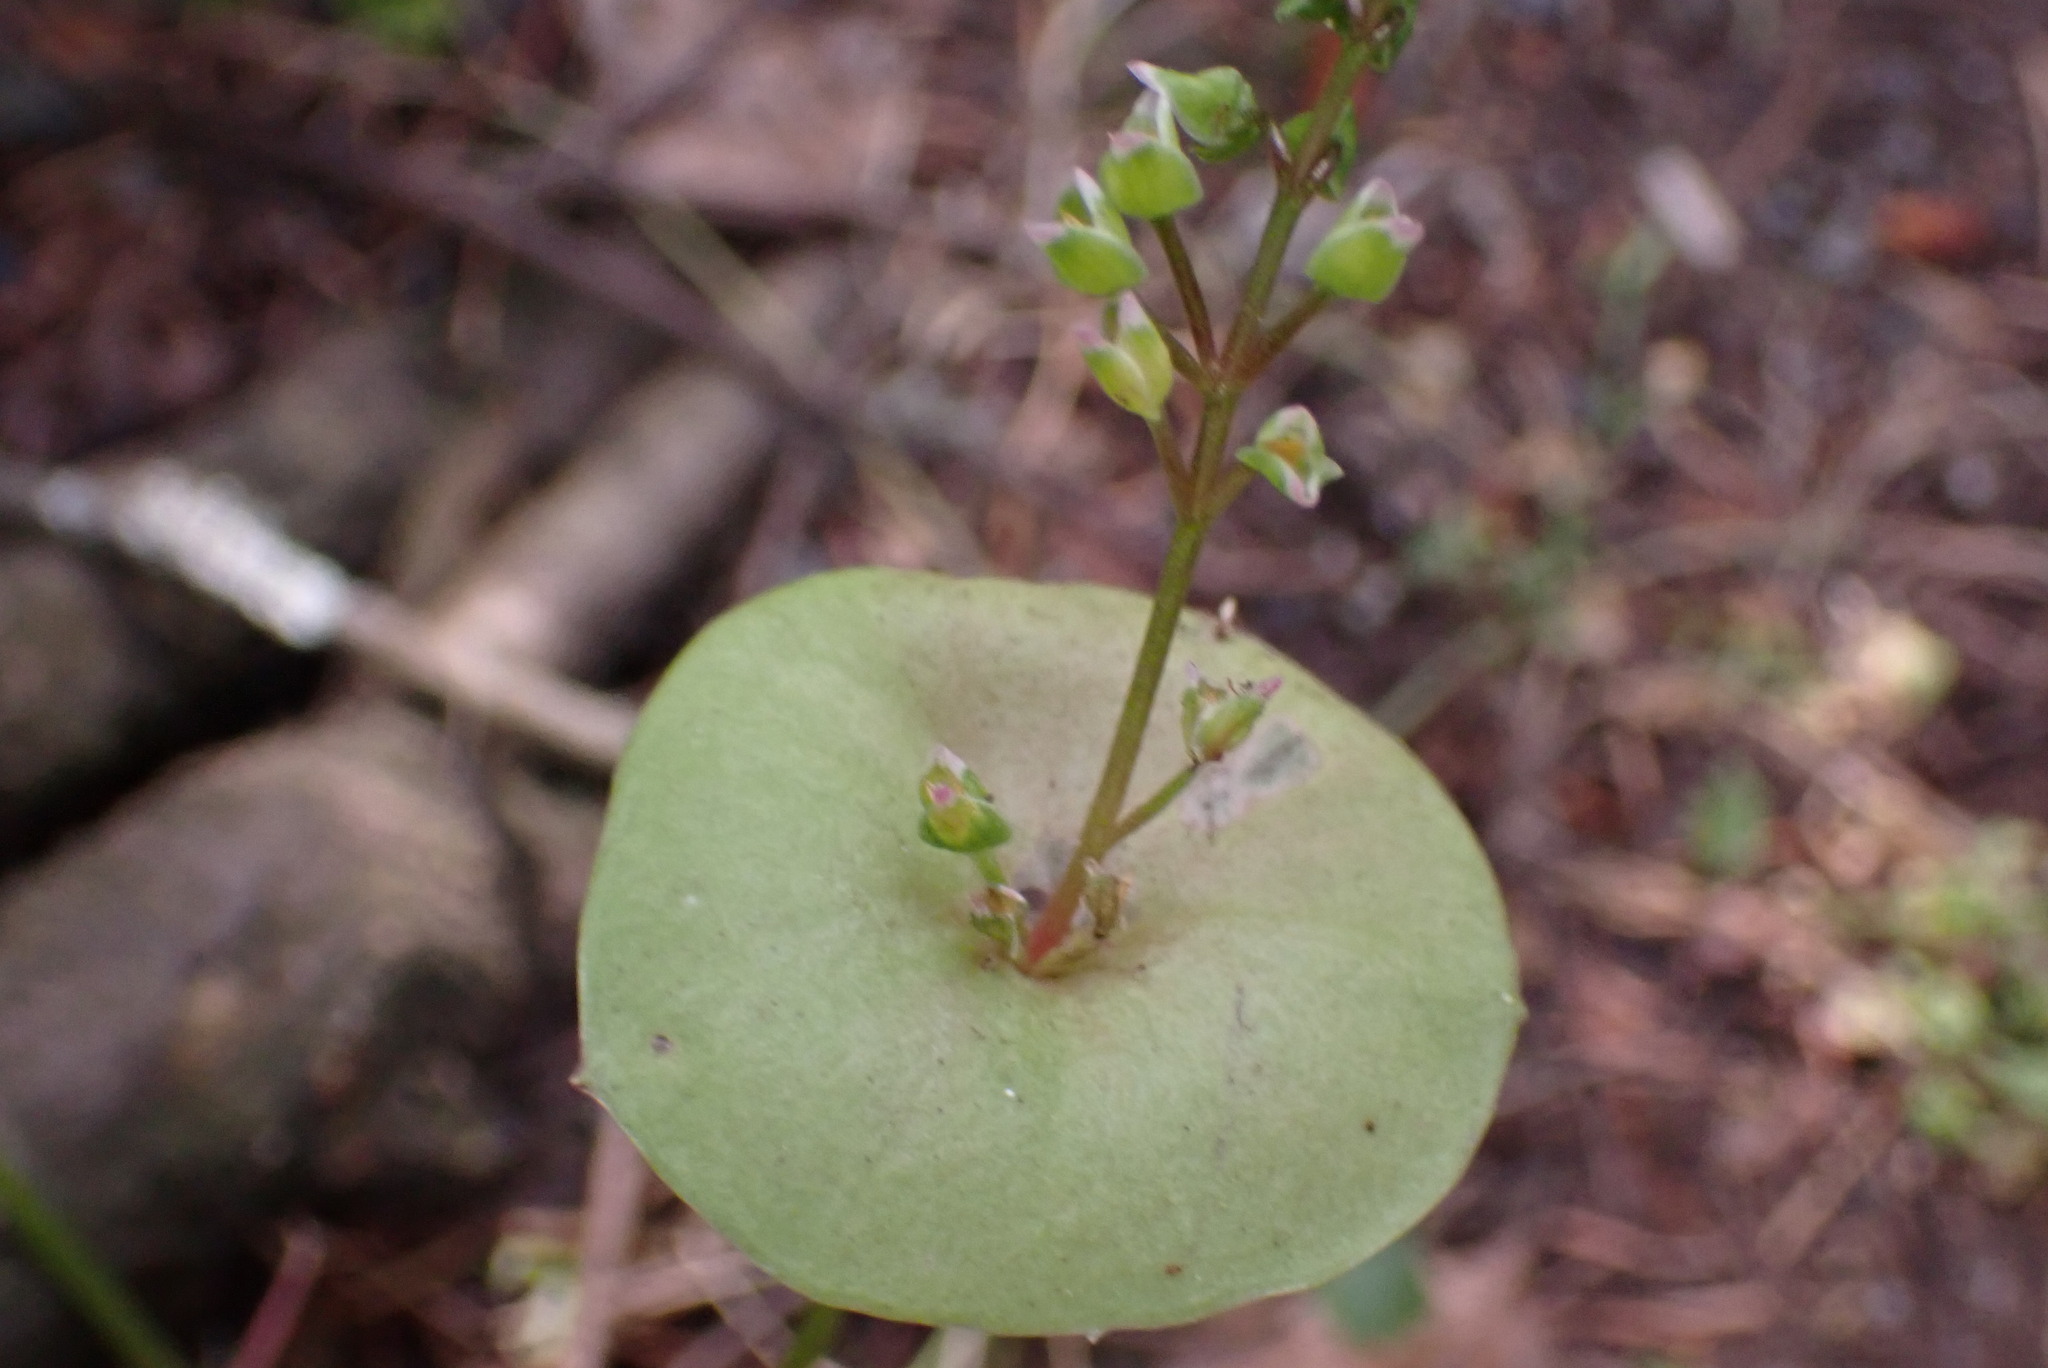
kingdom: Plantae
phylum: Tracheophyta
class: Magnoliopsida
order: Caryophyllales
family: Montiaceae
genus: Claytonia
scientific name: Claytonia perfoliata
